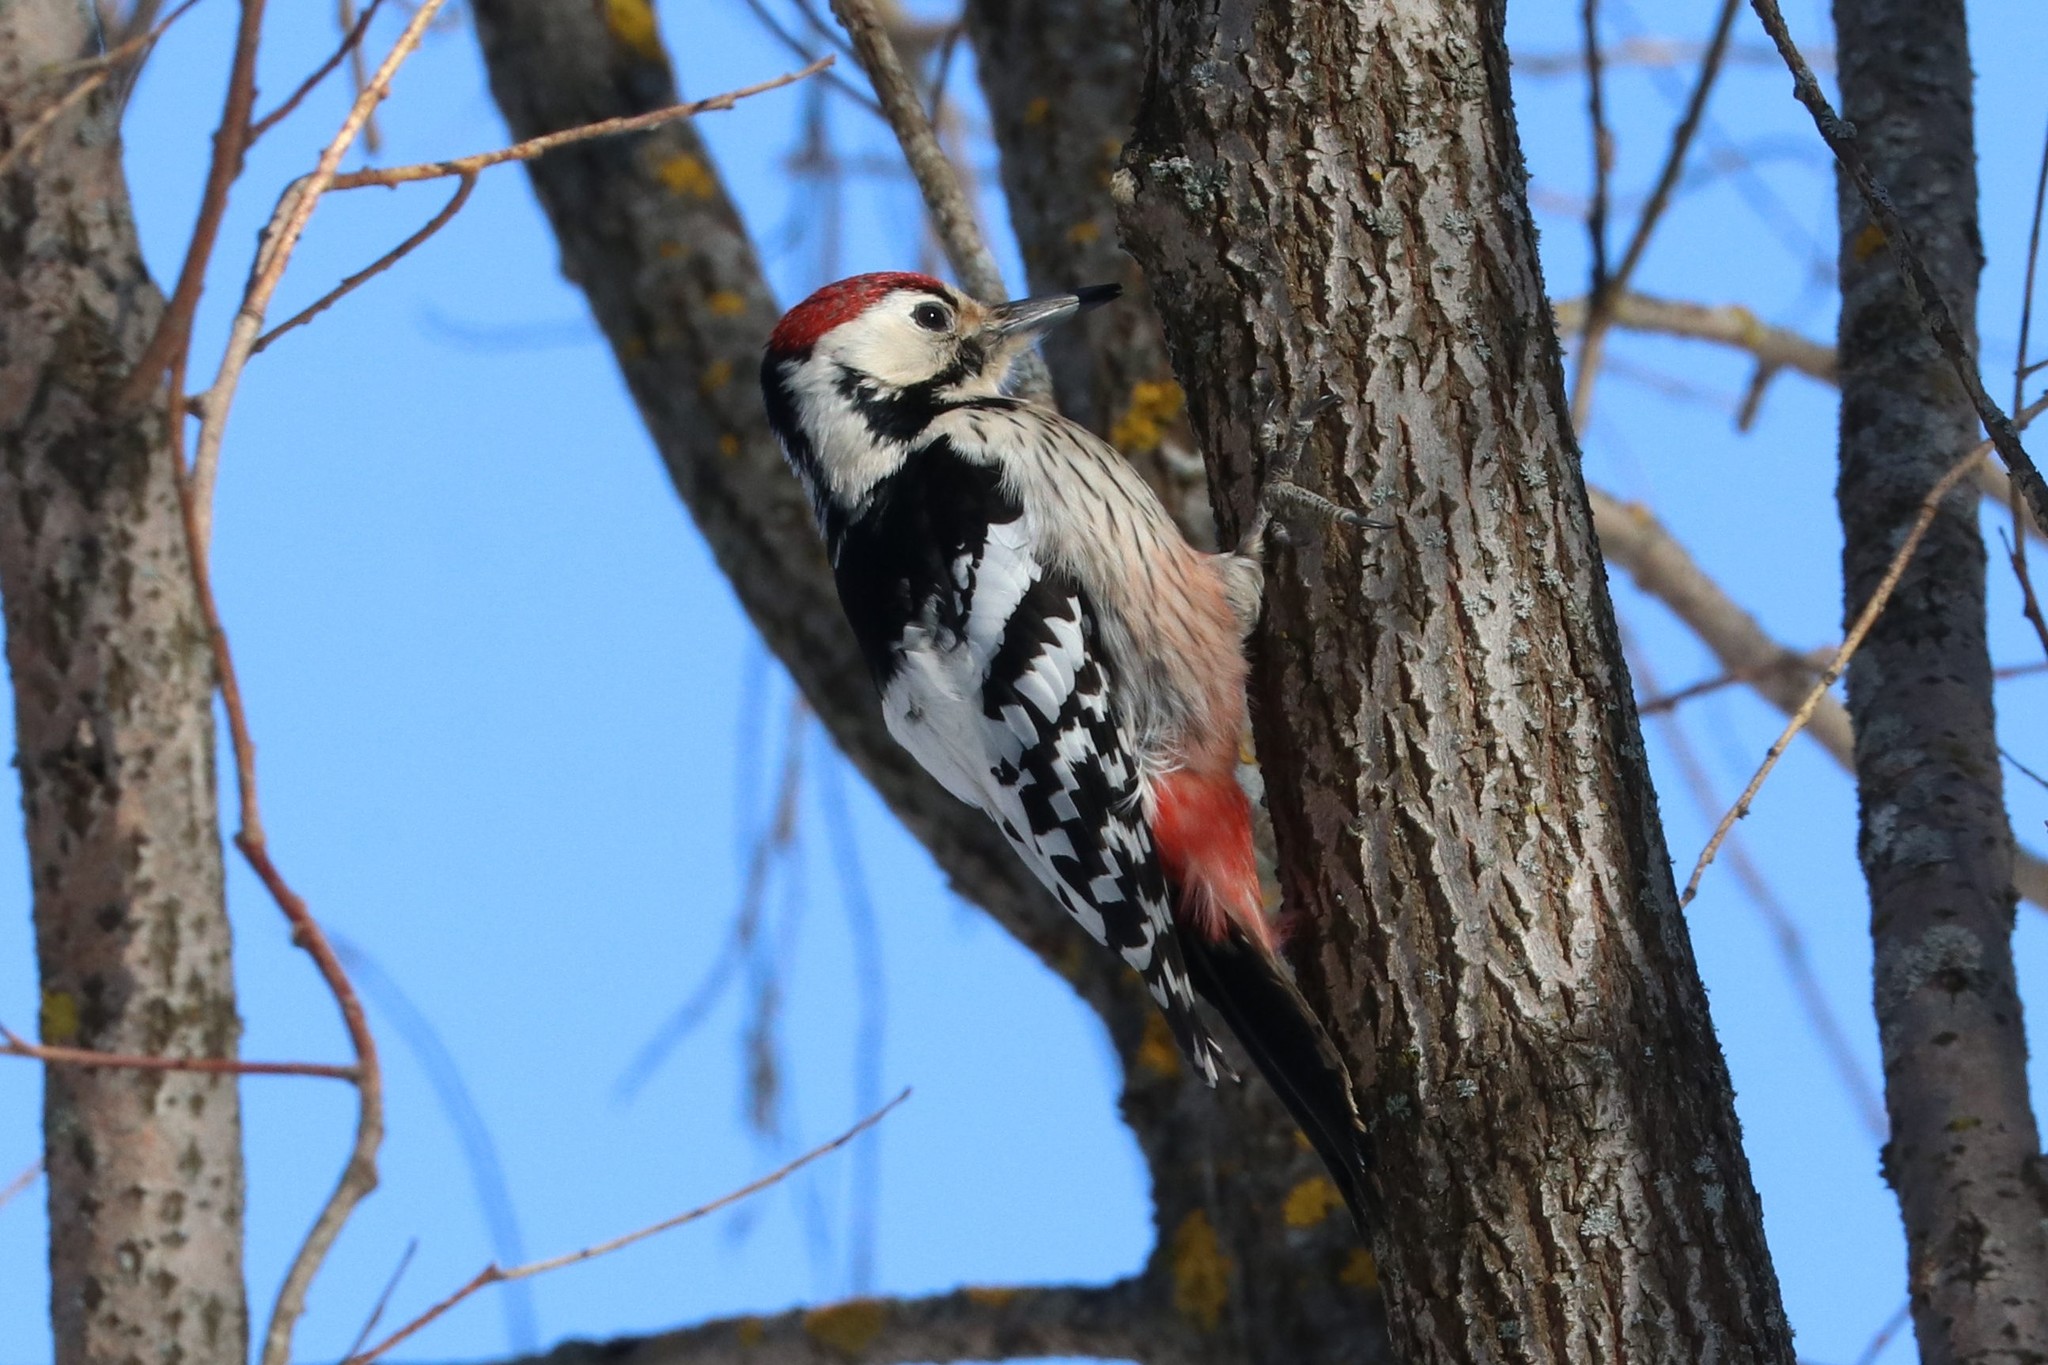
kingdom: Animalia
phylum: Chordata
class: Aves
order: Piciformes
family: Picidae
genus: Dendrocopos
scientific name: Dendrocopos leucotos
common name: White-backed woodpecker
